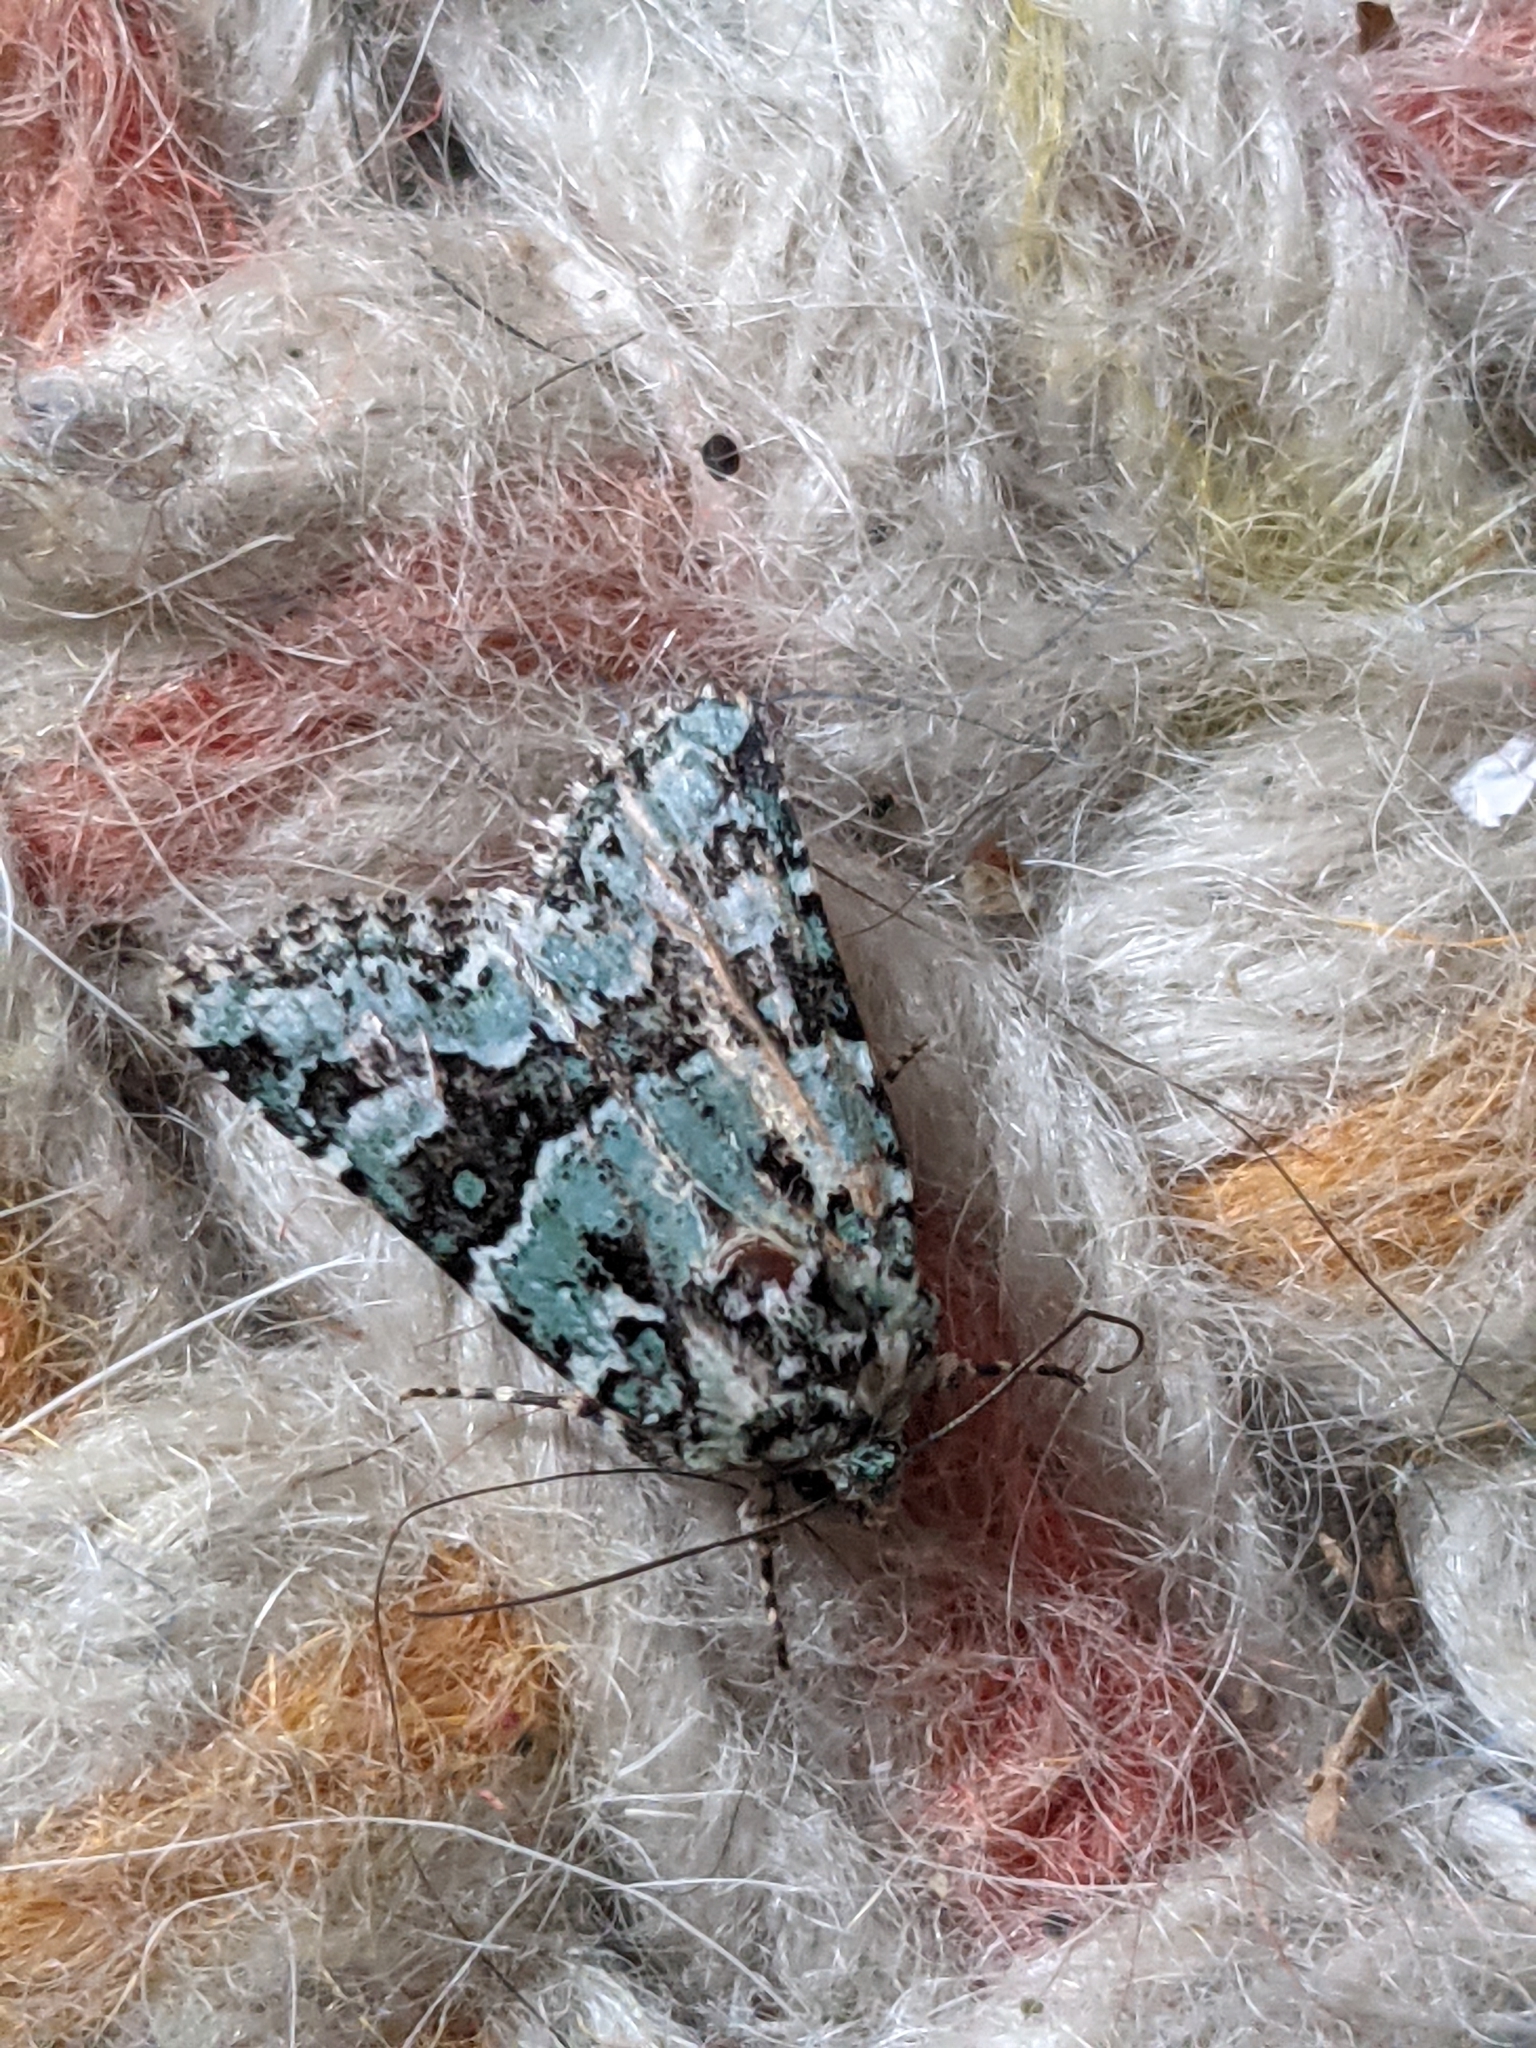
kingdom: Animalia
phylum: Arthropoda
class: Insecta
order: Lepidoptera
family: Noctuidae
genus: Lacinipolia
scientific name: Lacinipolia strigicollis
